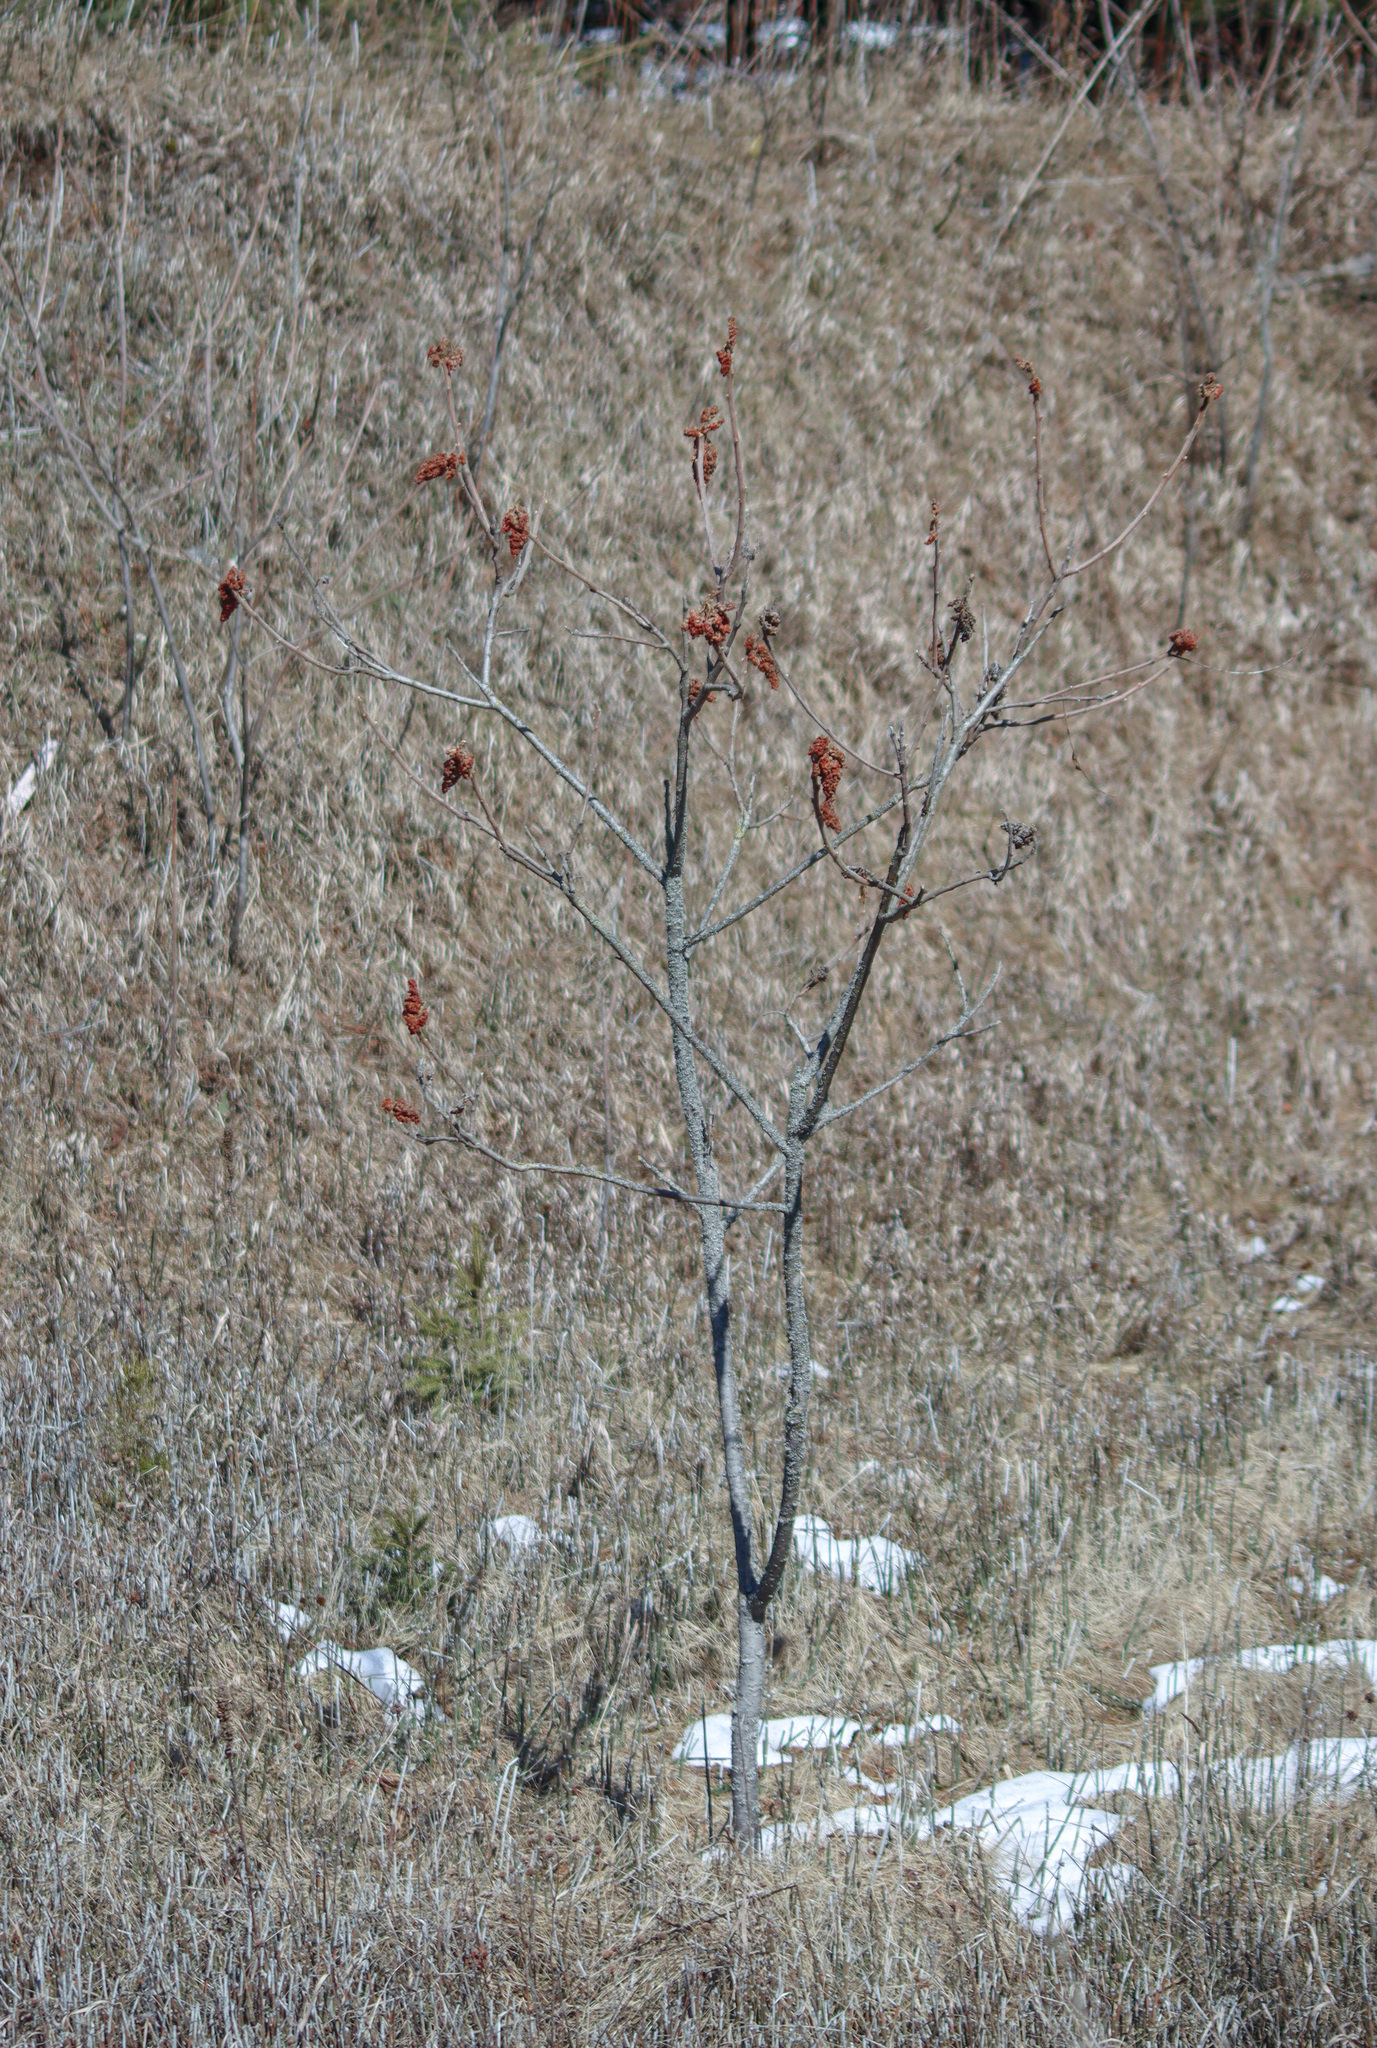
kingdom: Plantae
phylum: Tracheophyta
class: Magnoliopsida
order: Sapindales
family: Anacardiaceae
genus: Rhus
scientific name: Rhus typhina
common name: Staghorn sumac
